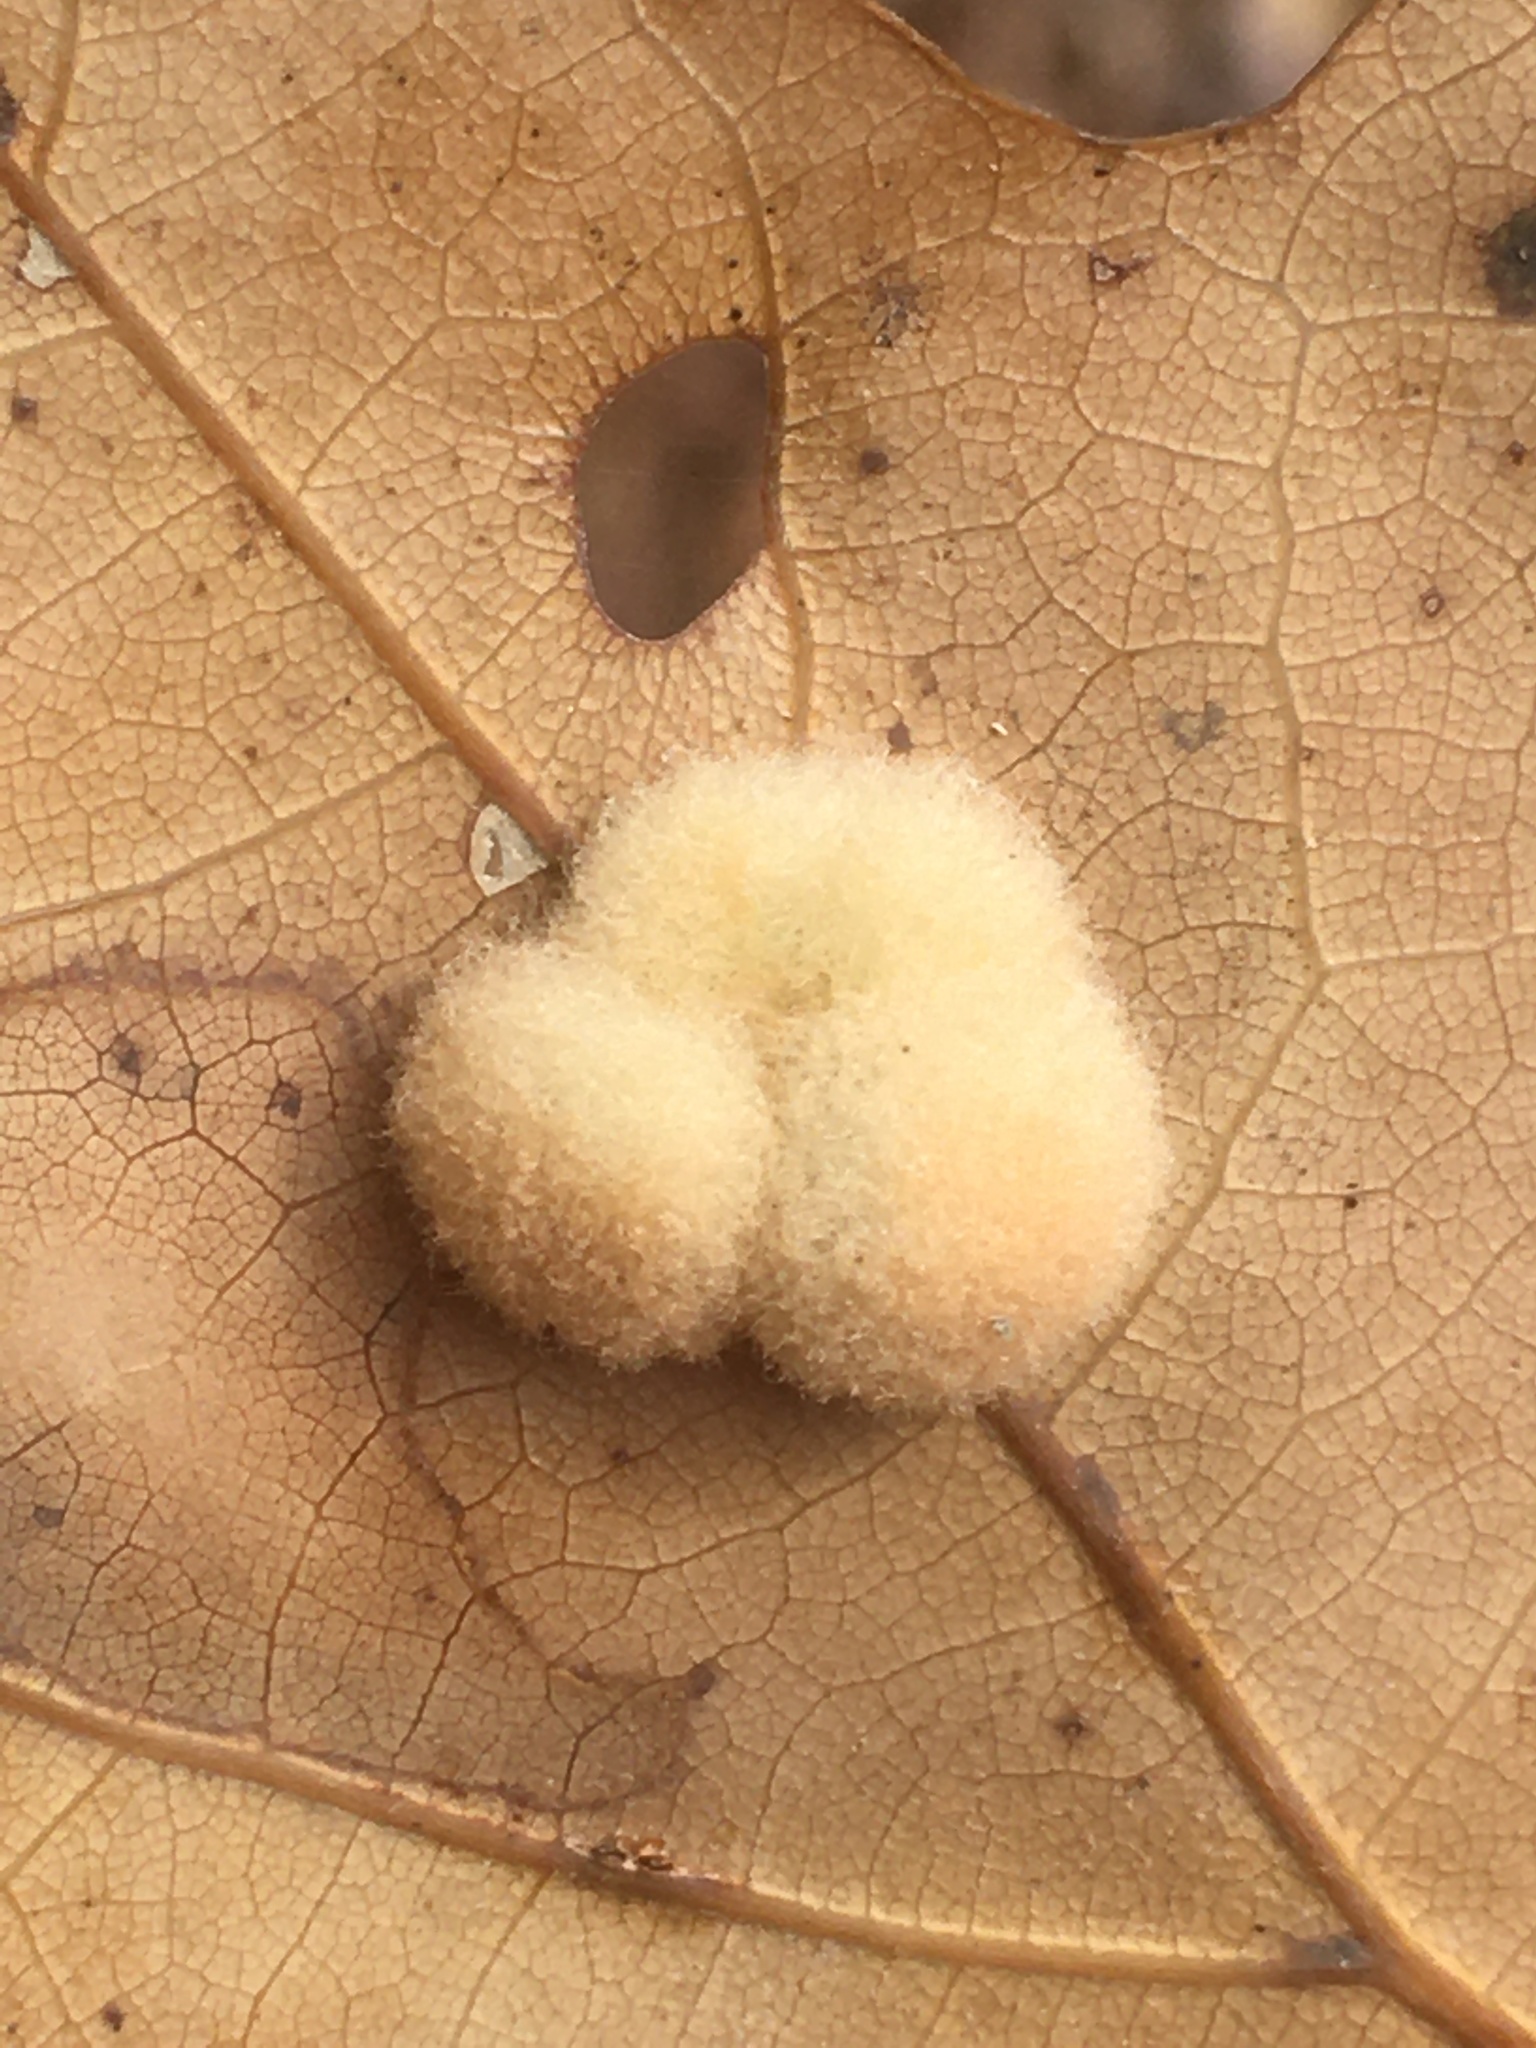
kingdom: Animalia
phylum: Arthropoda
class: Insecta
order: Hymenoptera
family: Cynipidae
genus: Callirhytis
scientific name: Callirhytis
